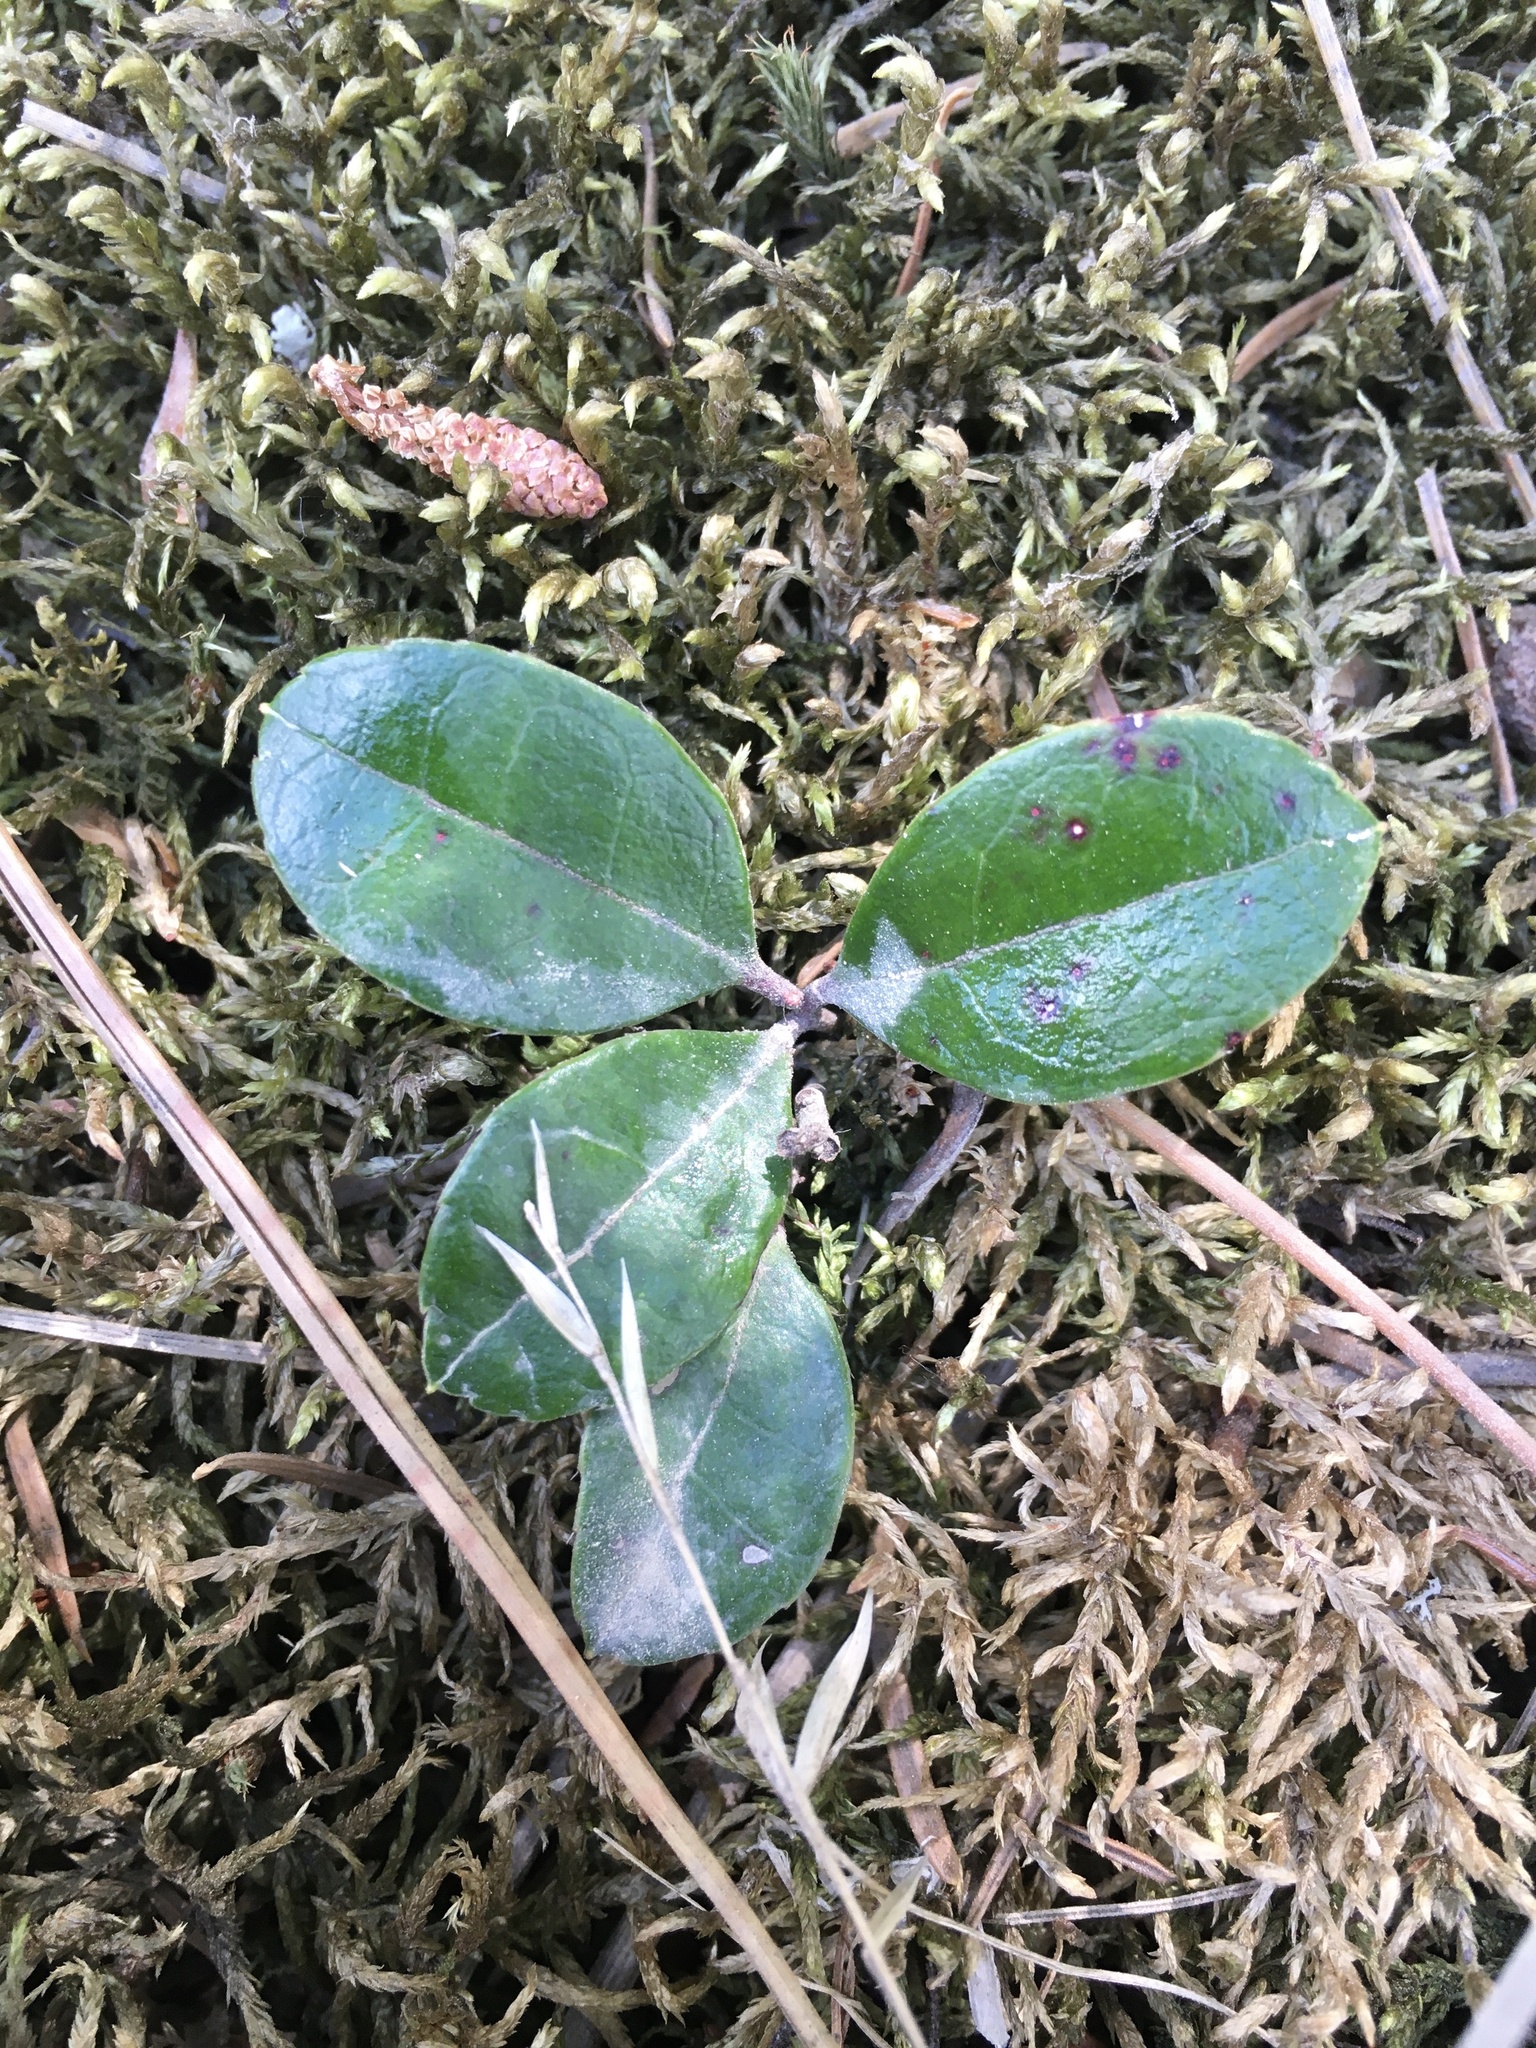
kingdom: Plantae
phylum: Tracheophyta
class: Magnoliopsida
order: Ericales
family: Ericaceae
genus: Gaultheria
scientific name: Gaultheria procumbens
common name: Checkerberry
